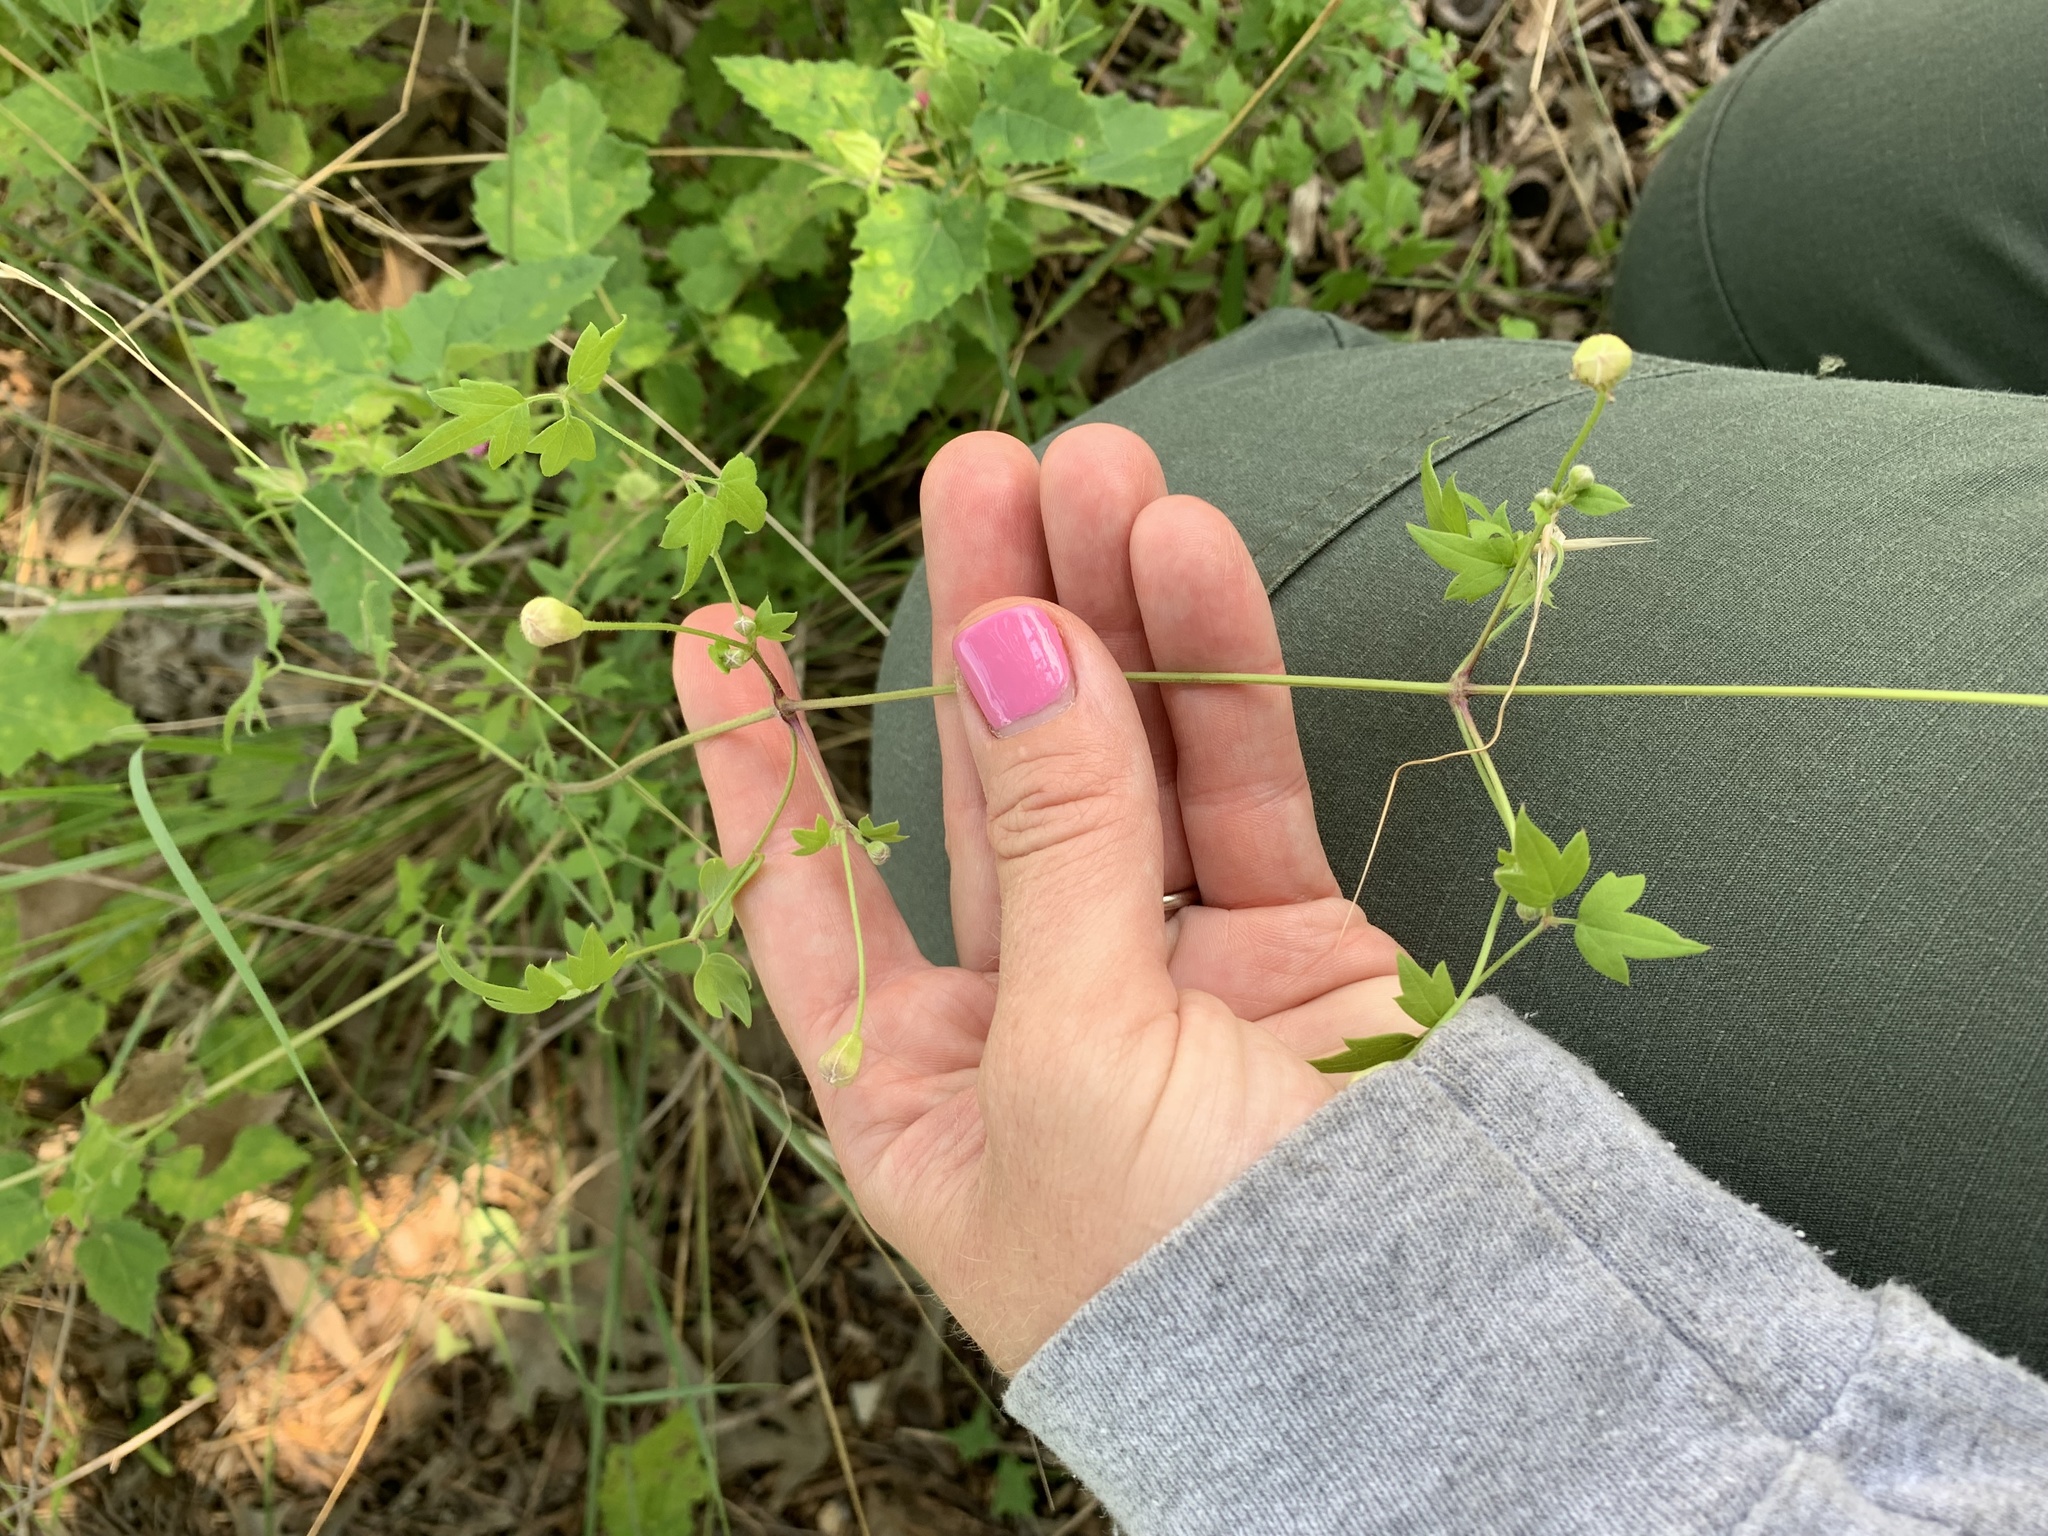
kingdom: Plantae
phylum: Tracheophyta
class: Magnoliopsida
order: Ranunculales
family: Ranunculaceae
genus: Clematis
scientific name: Clematis drummondii
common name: Texas virgin's bower
